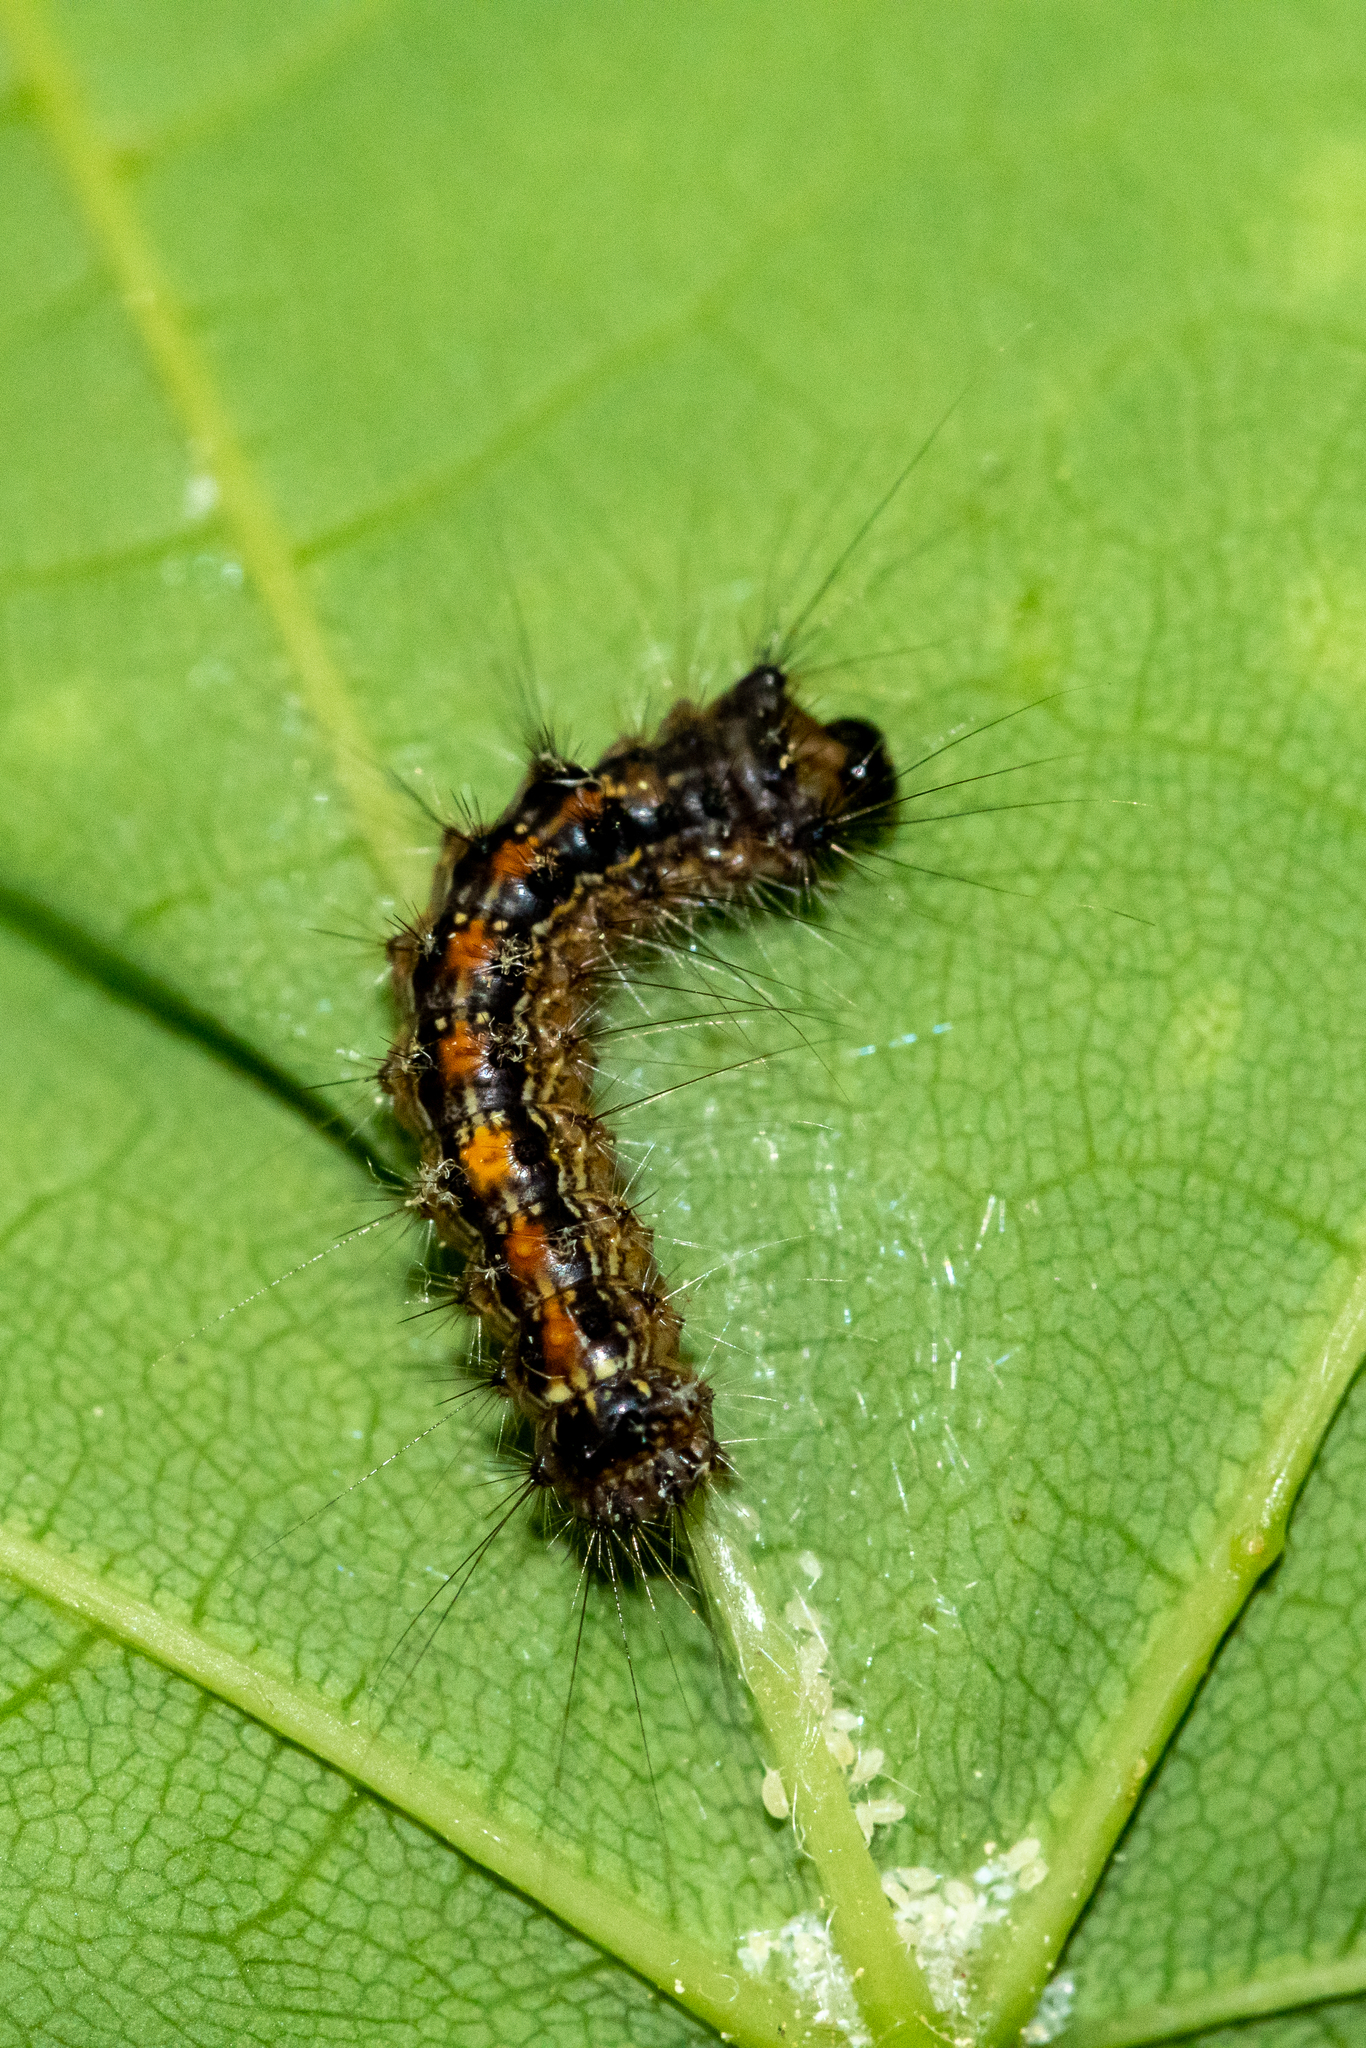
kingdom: Animalia
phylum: Arthropoda
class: Insecta
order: Lepidoptera
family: Erebidae
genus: Lymantria
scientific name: Lymantria dispar
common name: Gypsy moth
